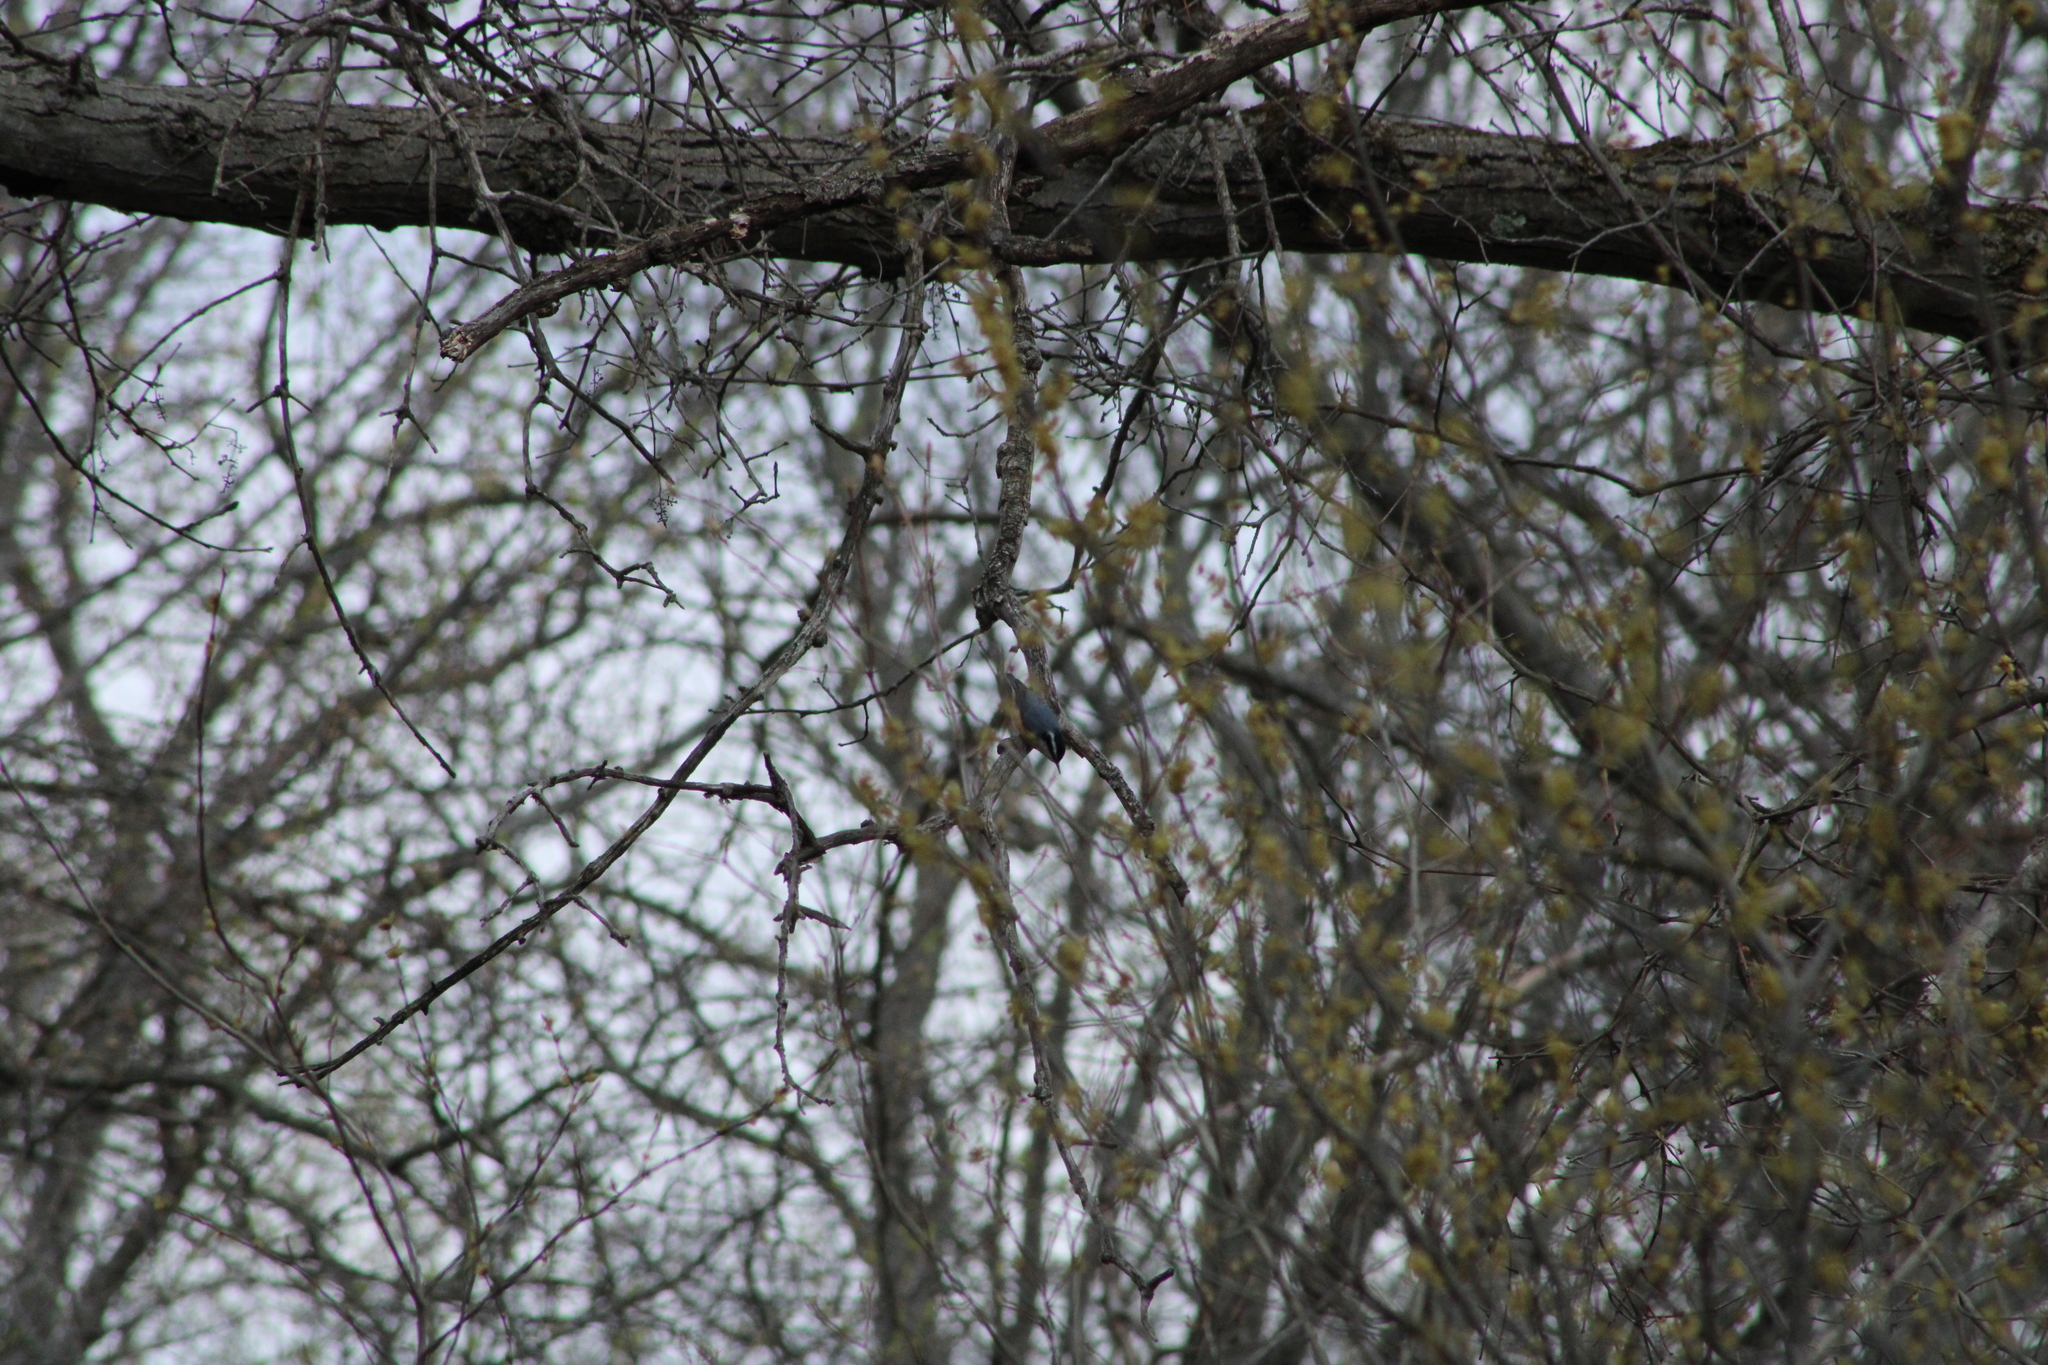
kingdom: Animalia
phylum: Chordata
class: Aves
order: Passeriformes
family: Sittidae
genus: Sitta
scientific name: Sitta canadensis
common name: Red-breasted nuthatch
